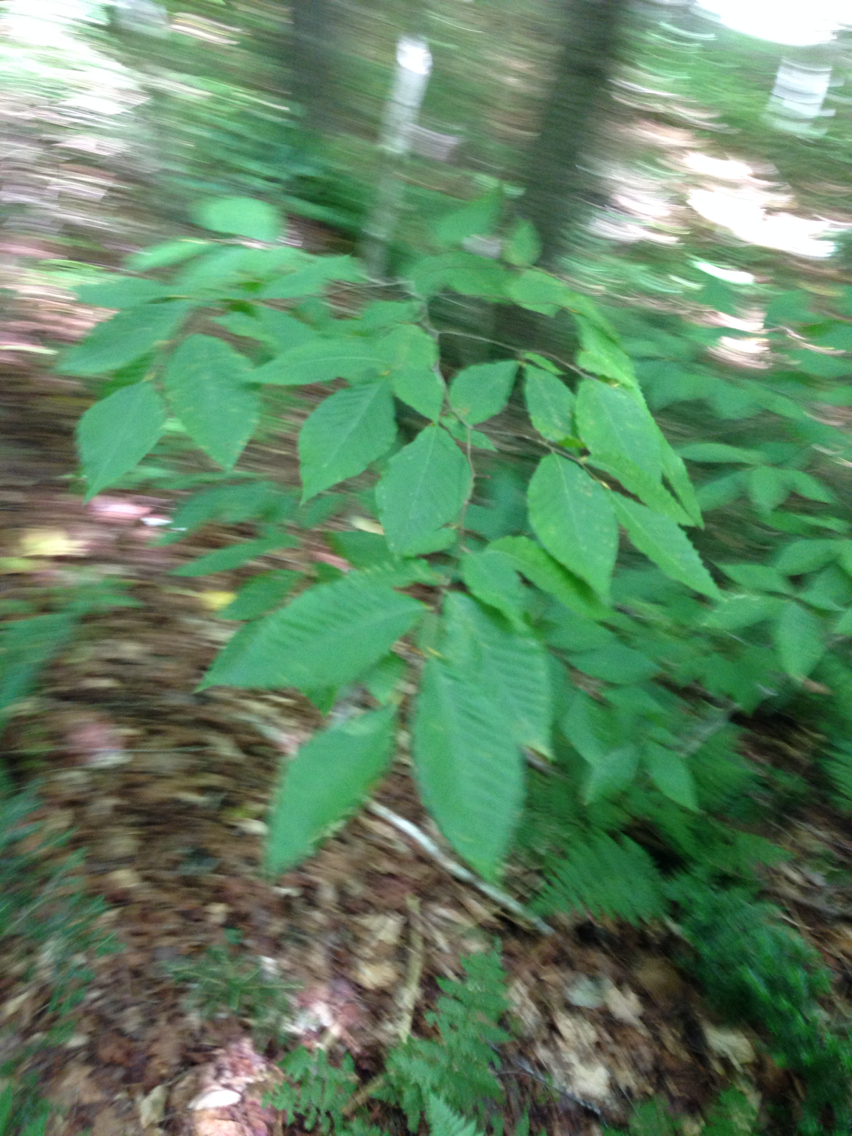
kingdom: Plantae
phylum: Tracheophyta
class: Magnoliopsida
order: Fagales
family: Fagaceae
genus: Fagus
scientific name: Fagus grandifolia
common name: American beech
